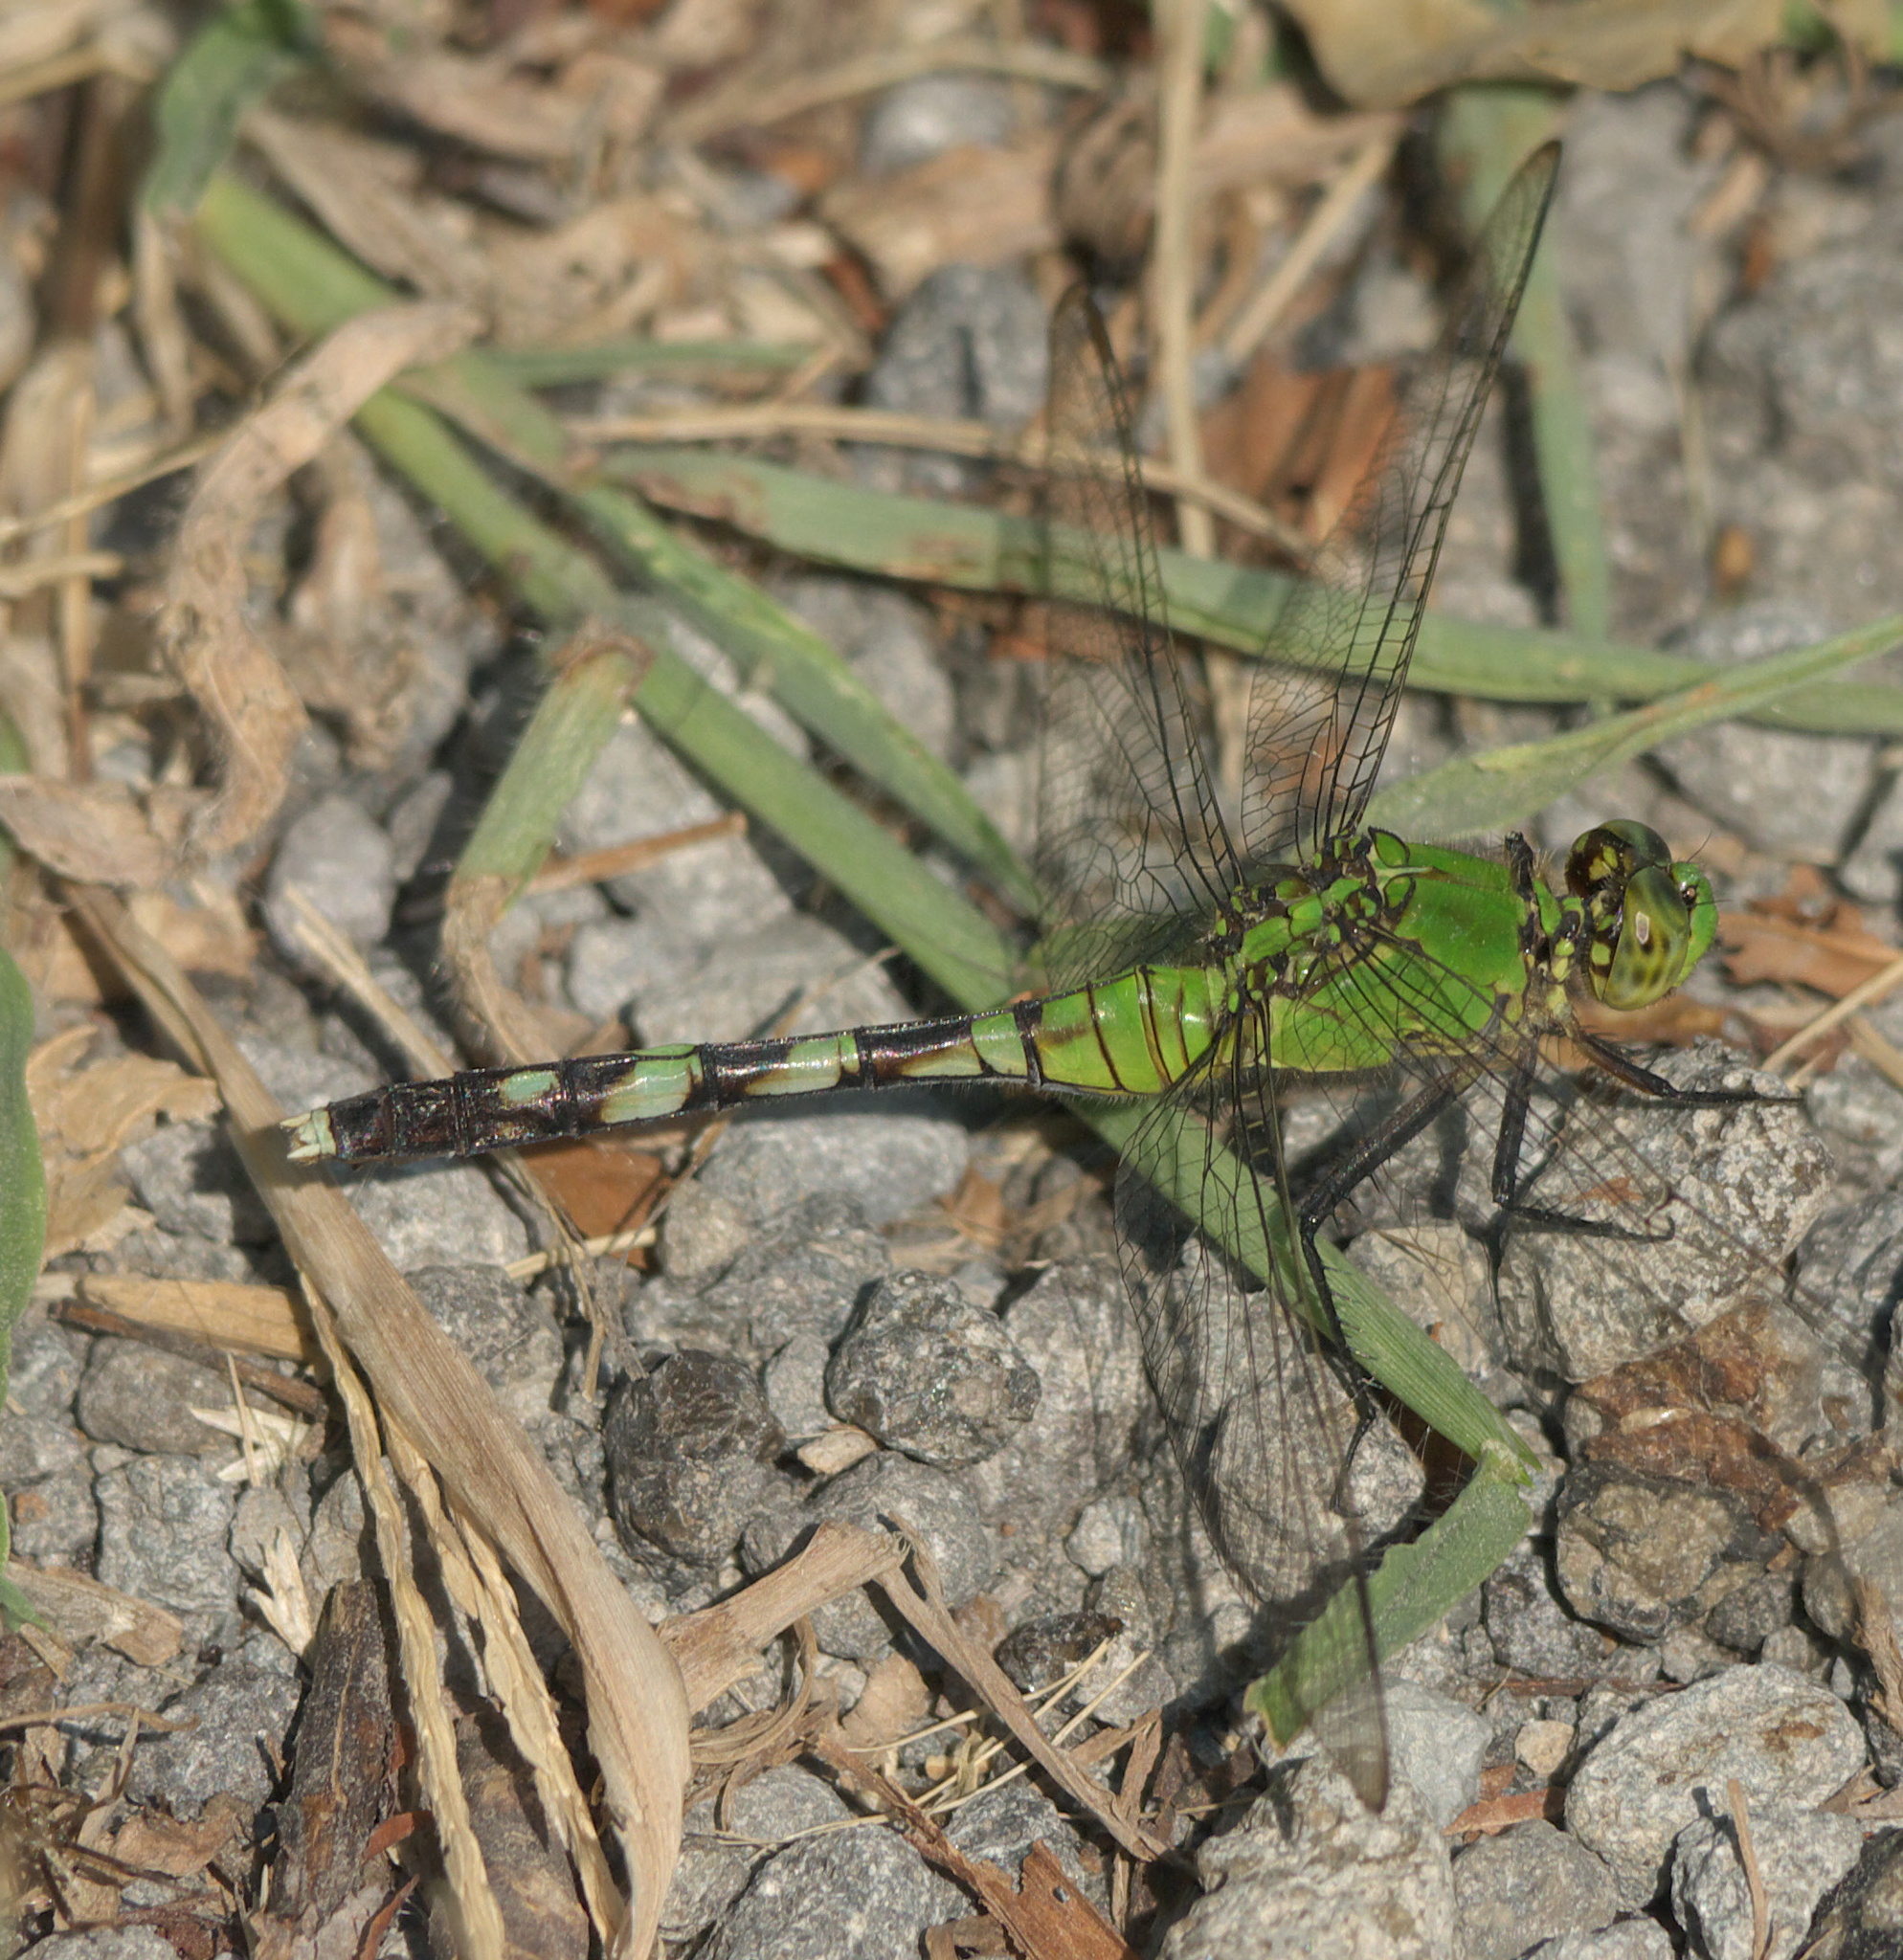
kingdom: Animalia
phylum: Arthropoda
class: Insecta
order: Odonata
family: Libellulidae
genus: Erythemis
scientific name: Erythemis simplicicollis
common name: Eastern pondhawk
